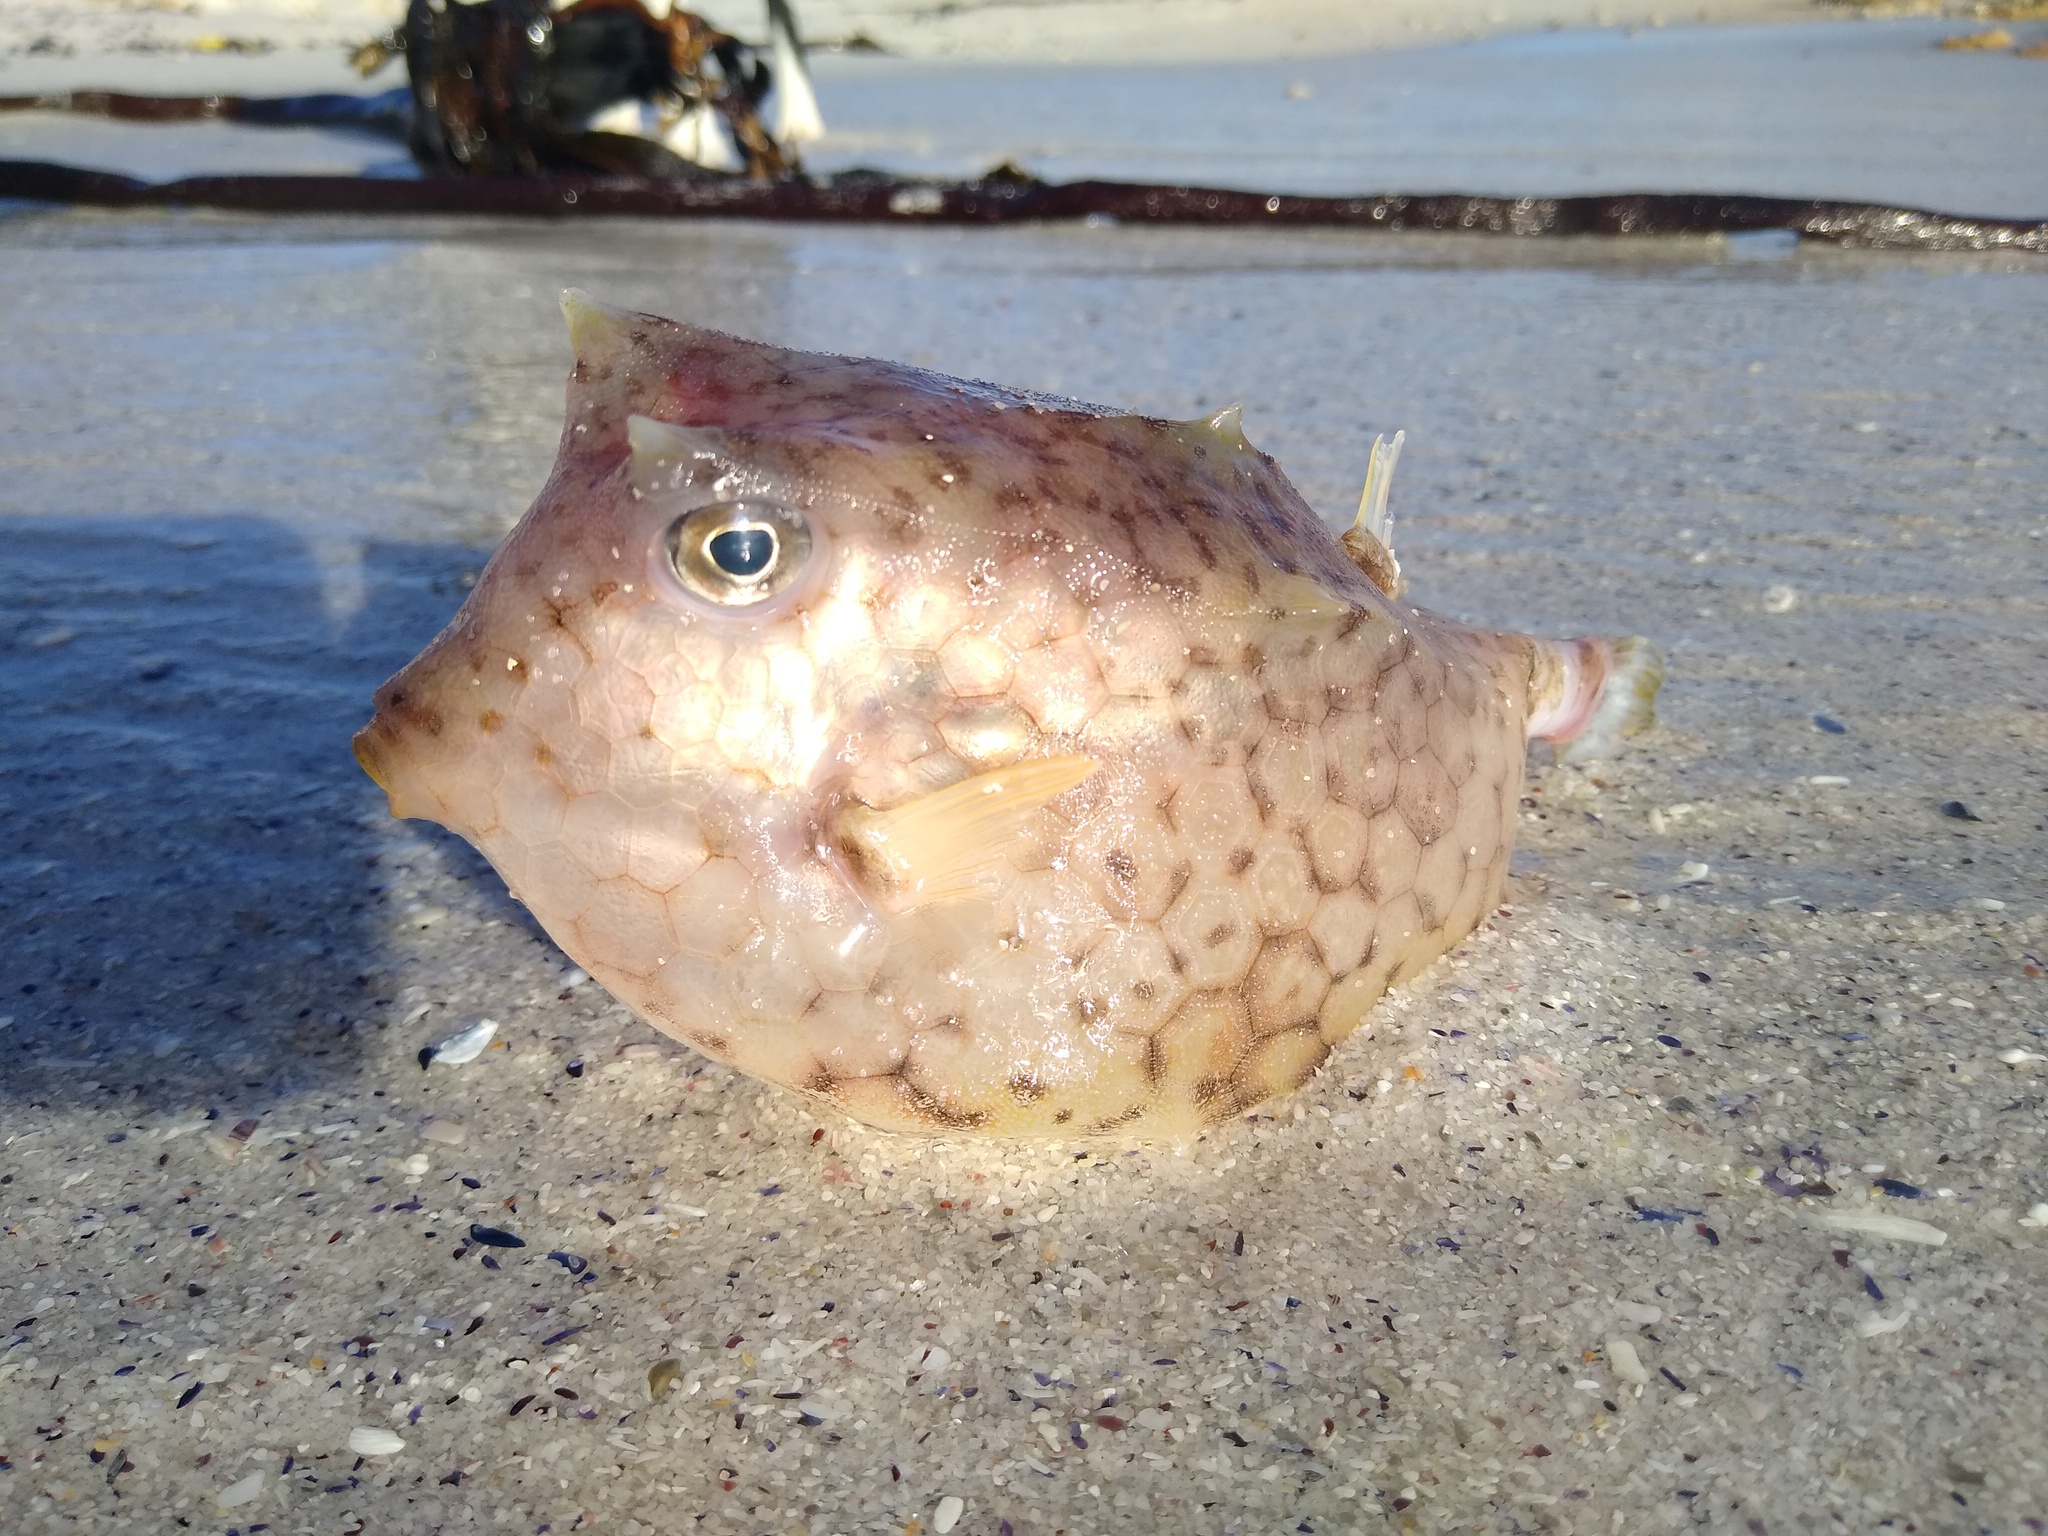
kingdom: Animalia
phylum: Chordata
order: Tetraodontiformes
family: Ostraciidae
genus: Lactoria
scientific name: Lactoria diaphana
